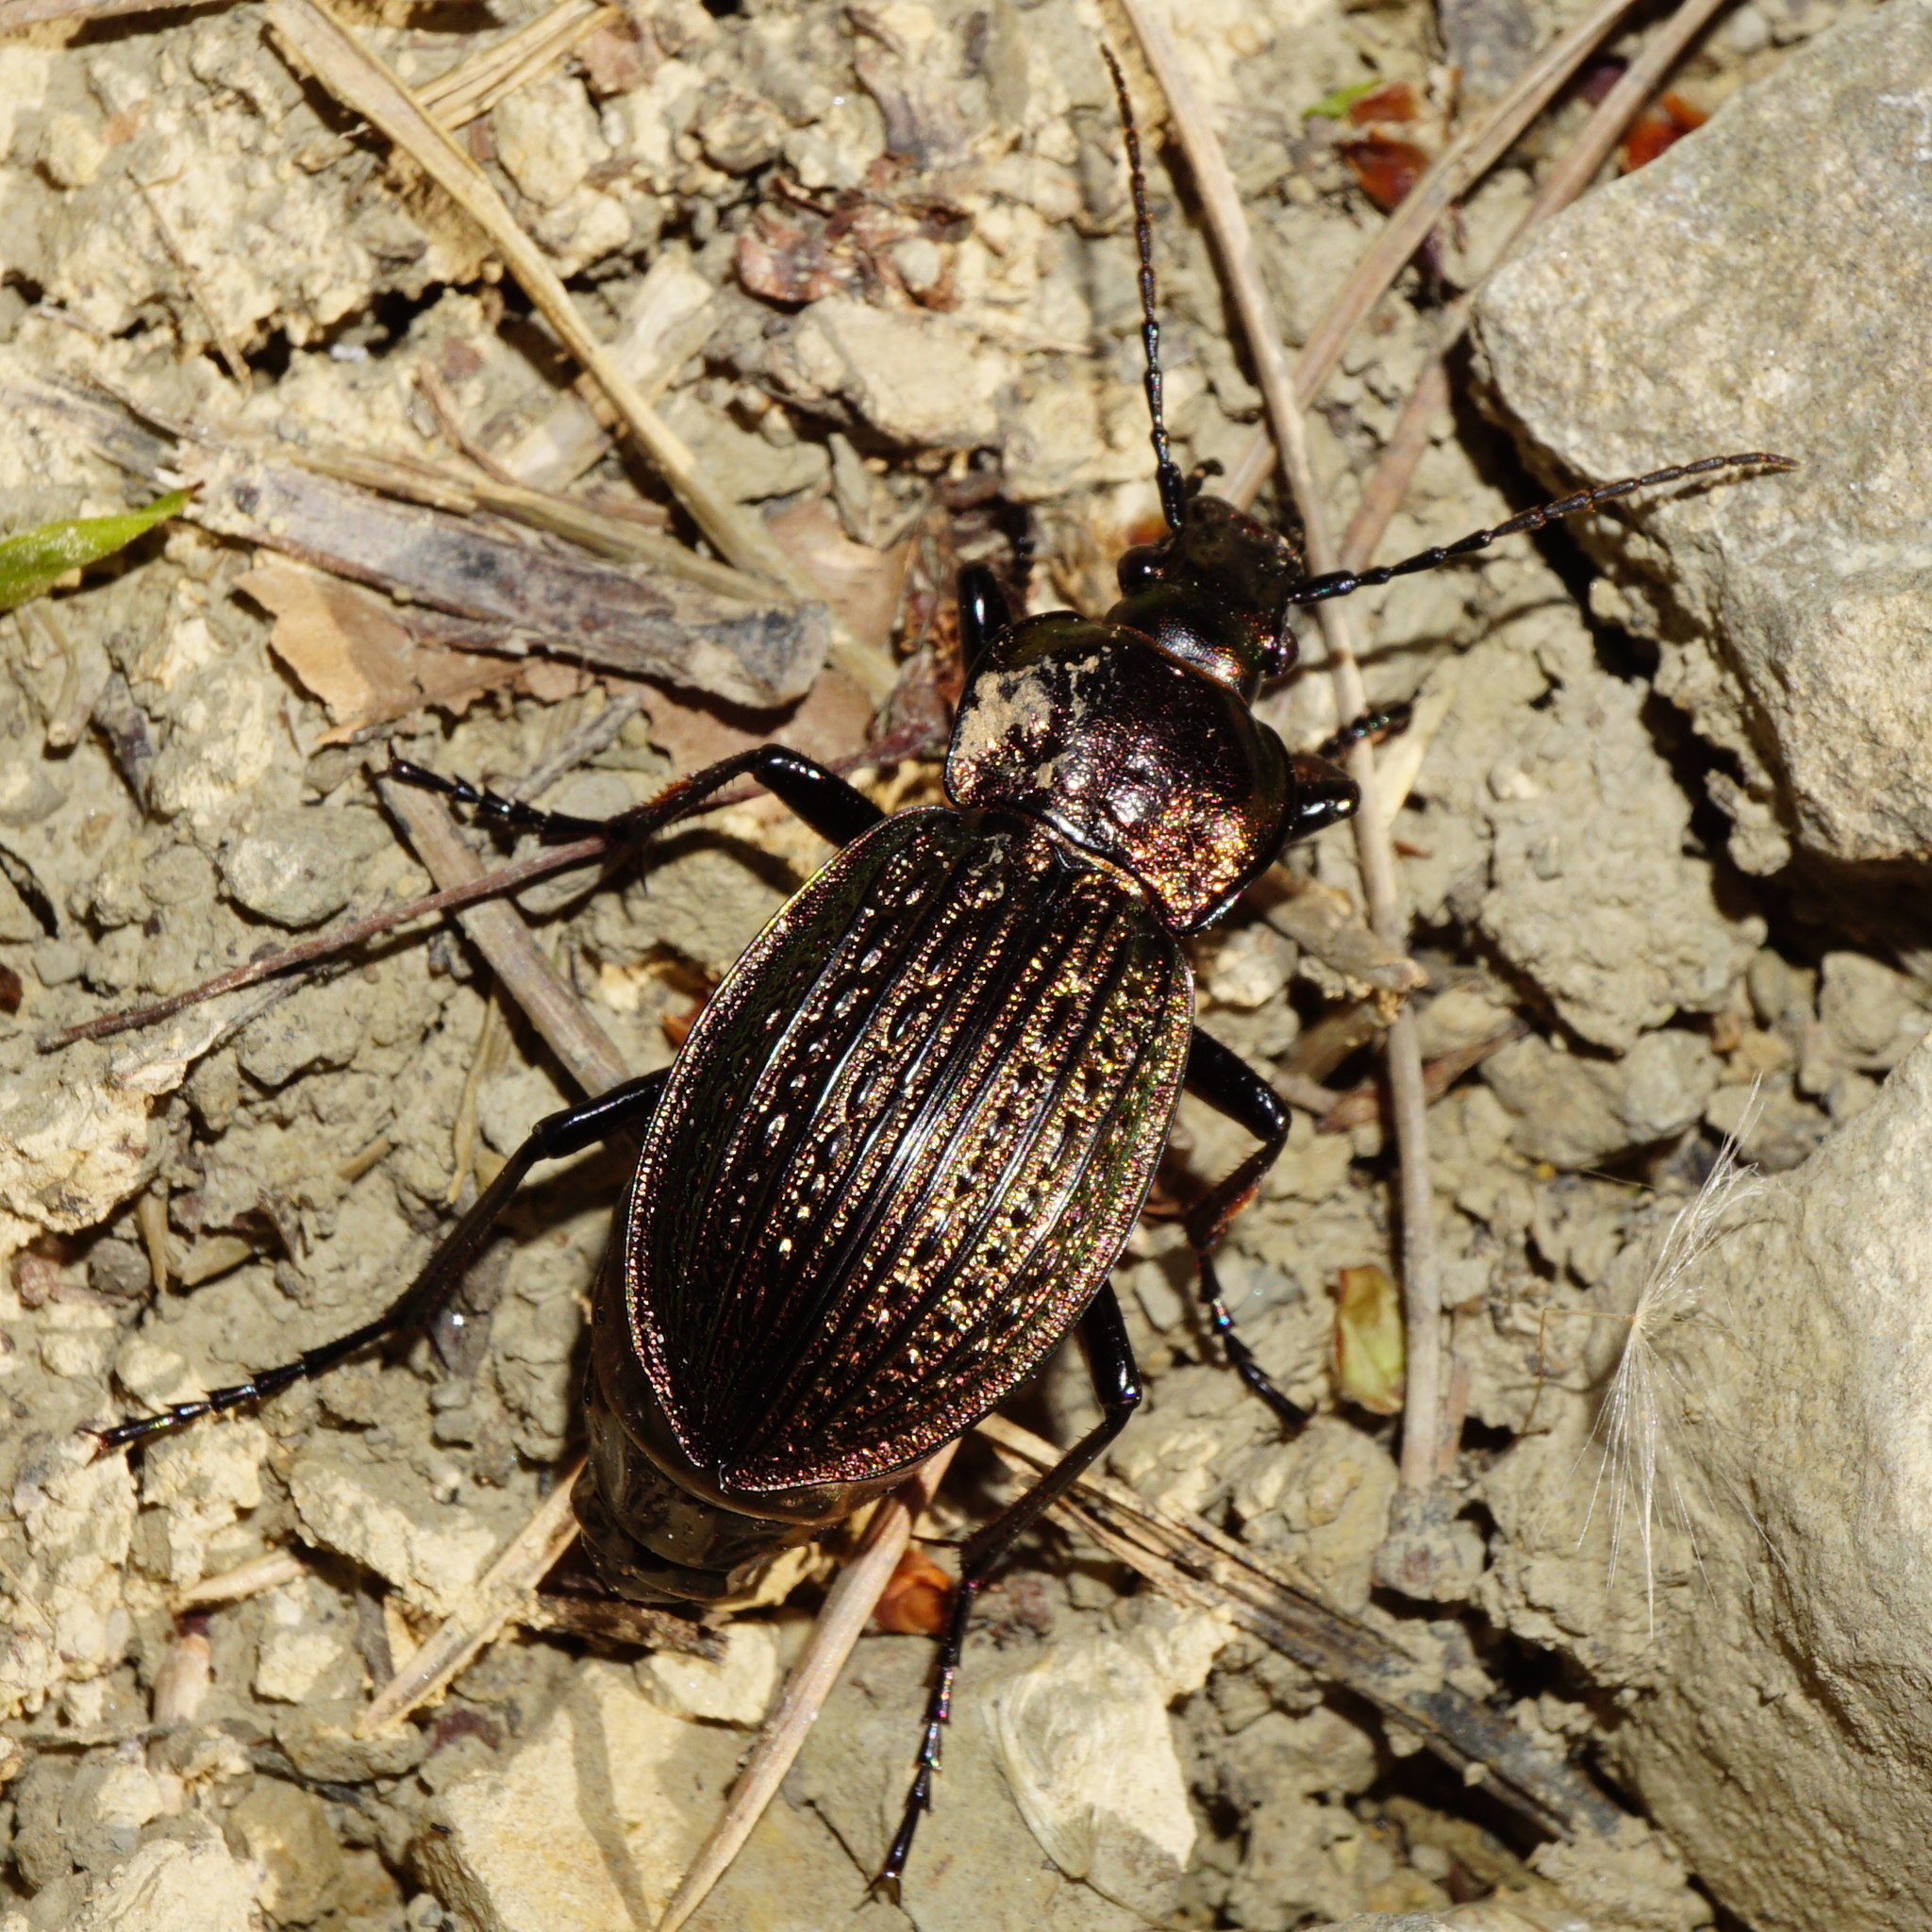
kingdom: Animalia
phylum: Arthropoda
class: Insecta
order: Coleoptera
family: Carabidae
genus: Carabus
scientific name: Carabus ulrichii
